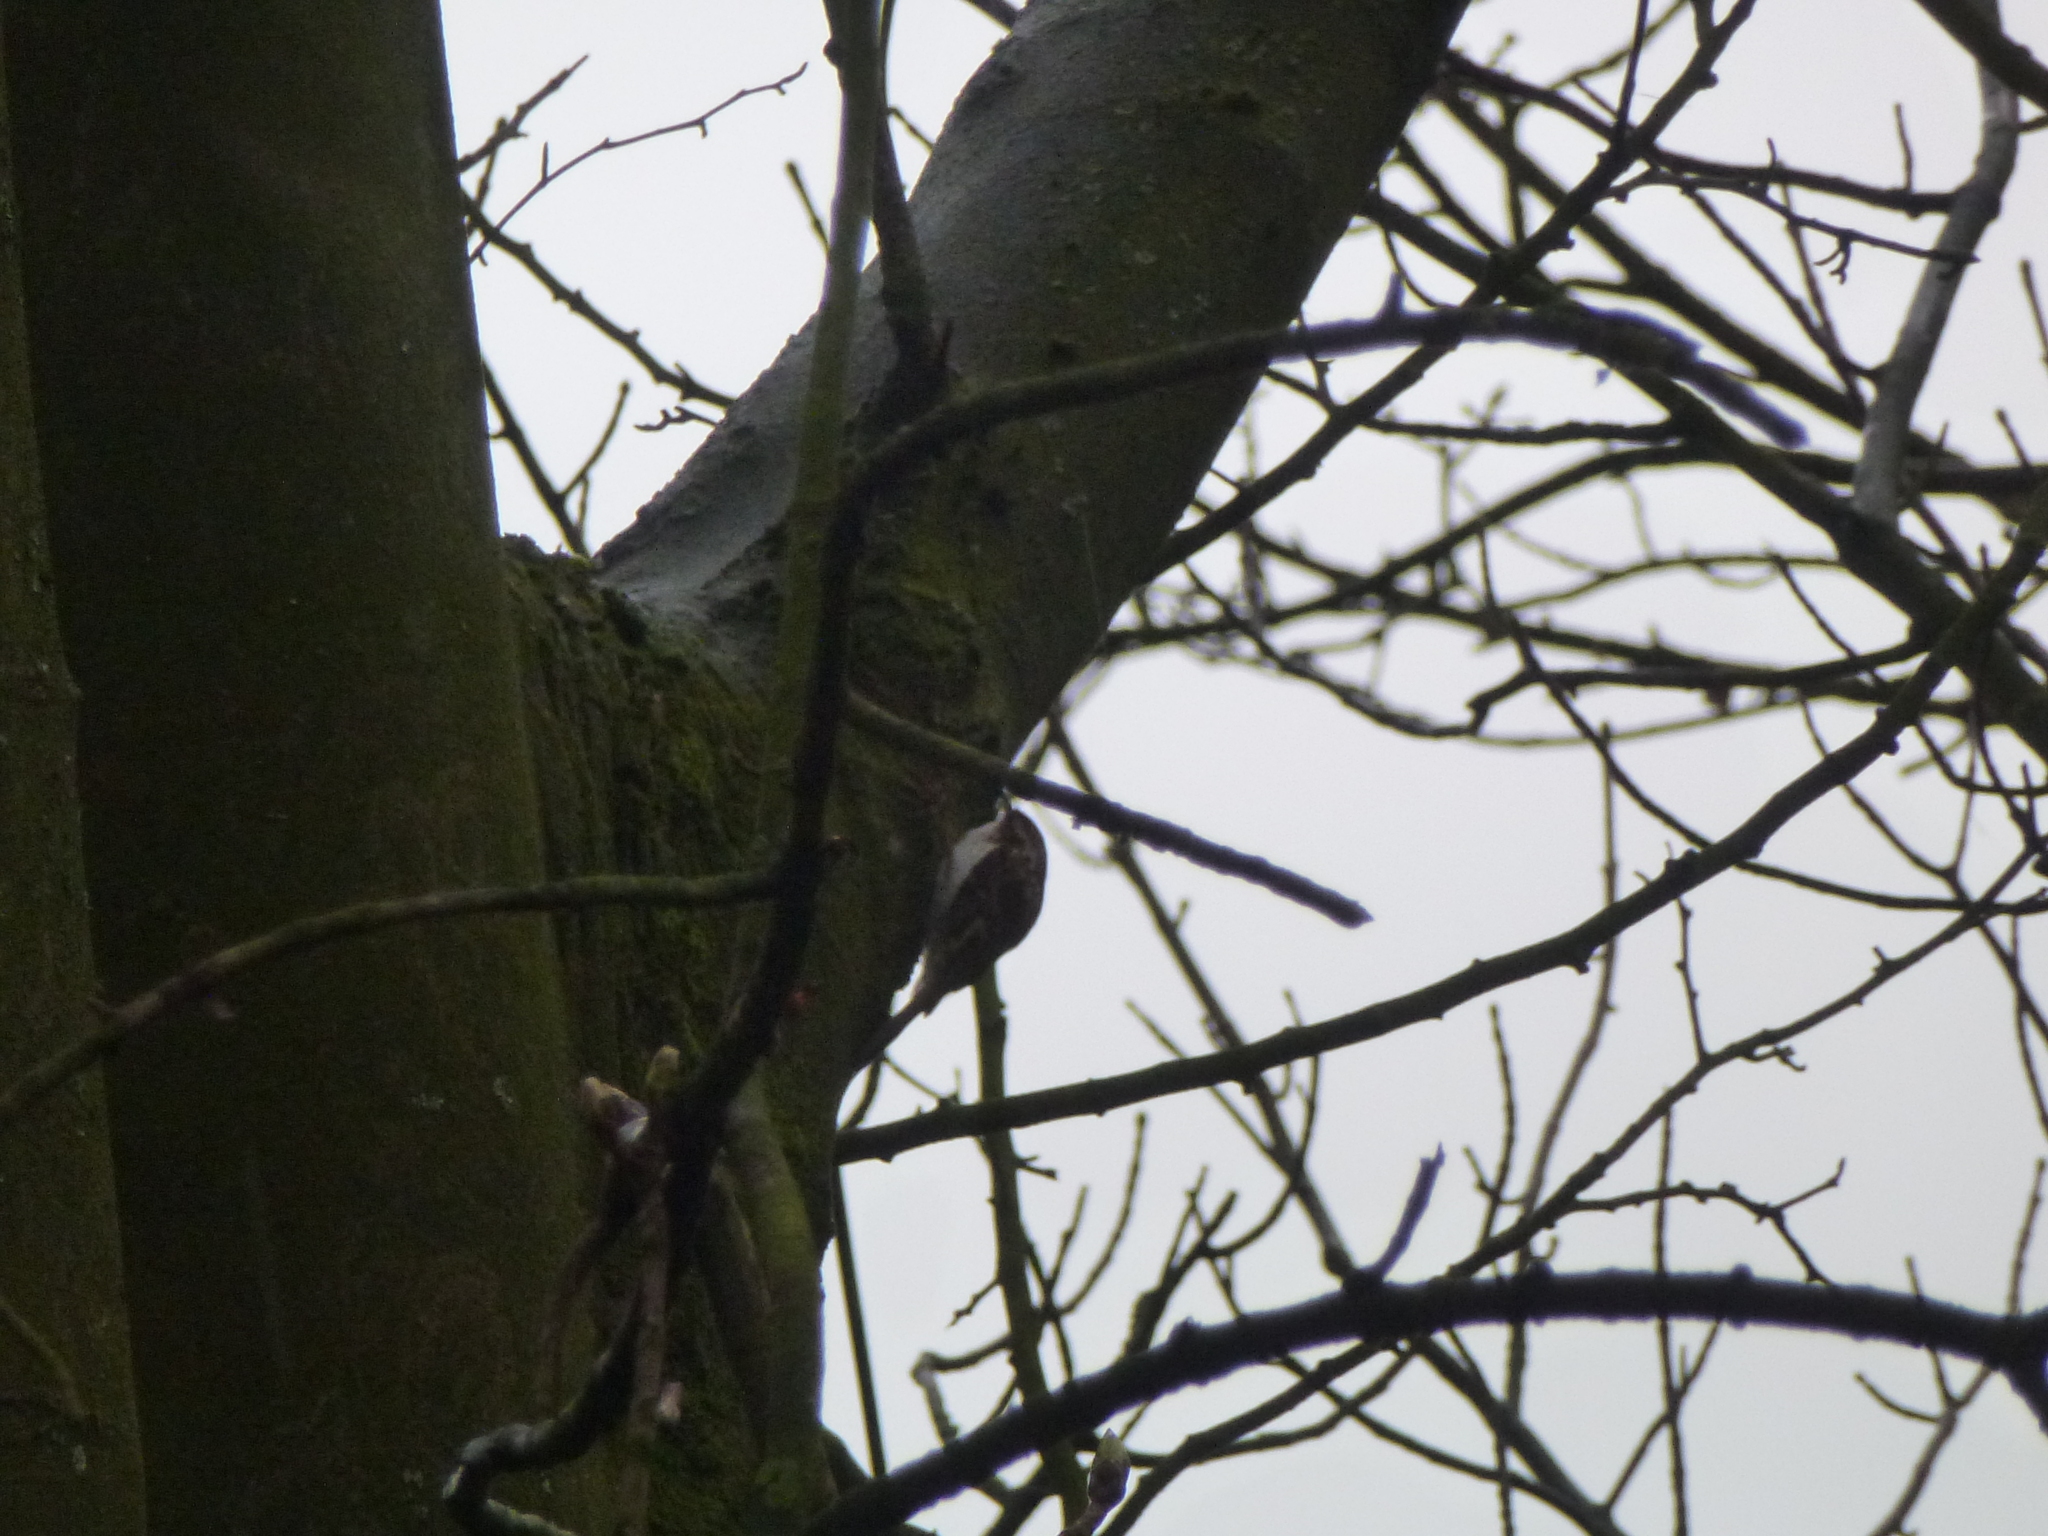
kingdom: Animalia
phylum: Chordata
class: Aves
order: Passeriformes
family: Certhiidae
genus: Certhia
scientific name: Certhia familiaris
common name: Eurasian treecreeper
